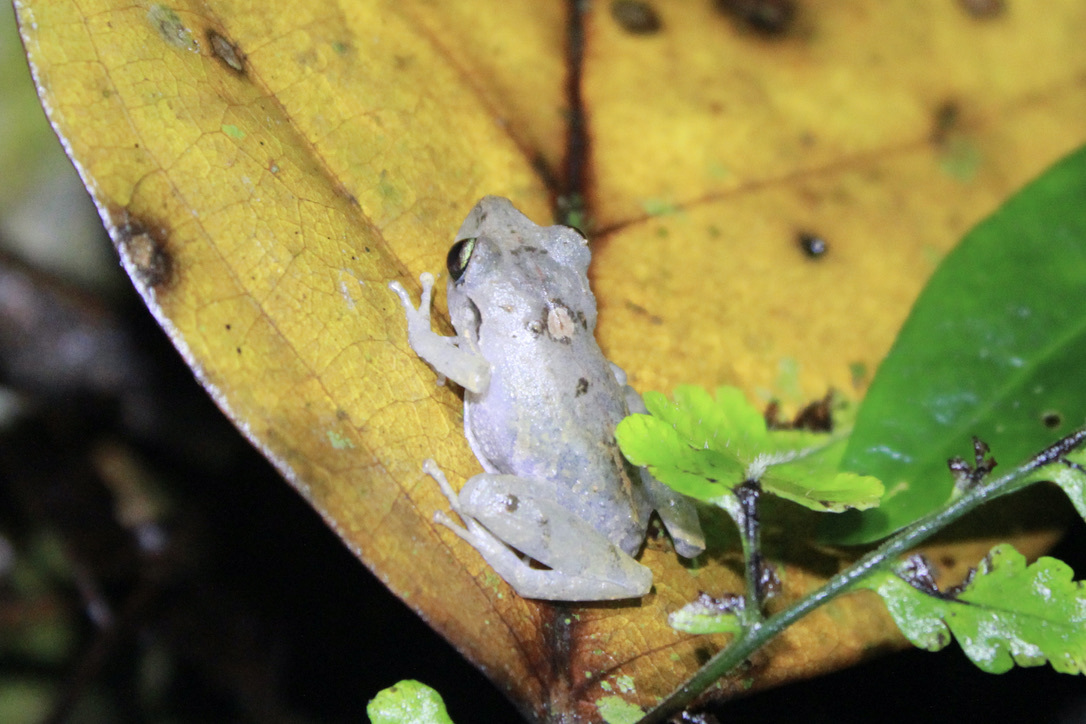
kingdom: Animalia
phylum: Chordata
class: Amphibia
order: Anura
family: Craugastoridae
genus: Pristimantis
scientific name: Pristimantis urichi
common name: Lesser antilles robber frog
